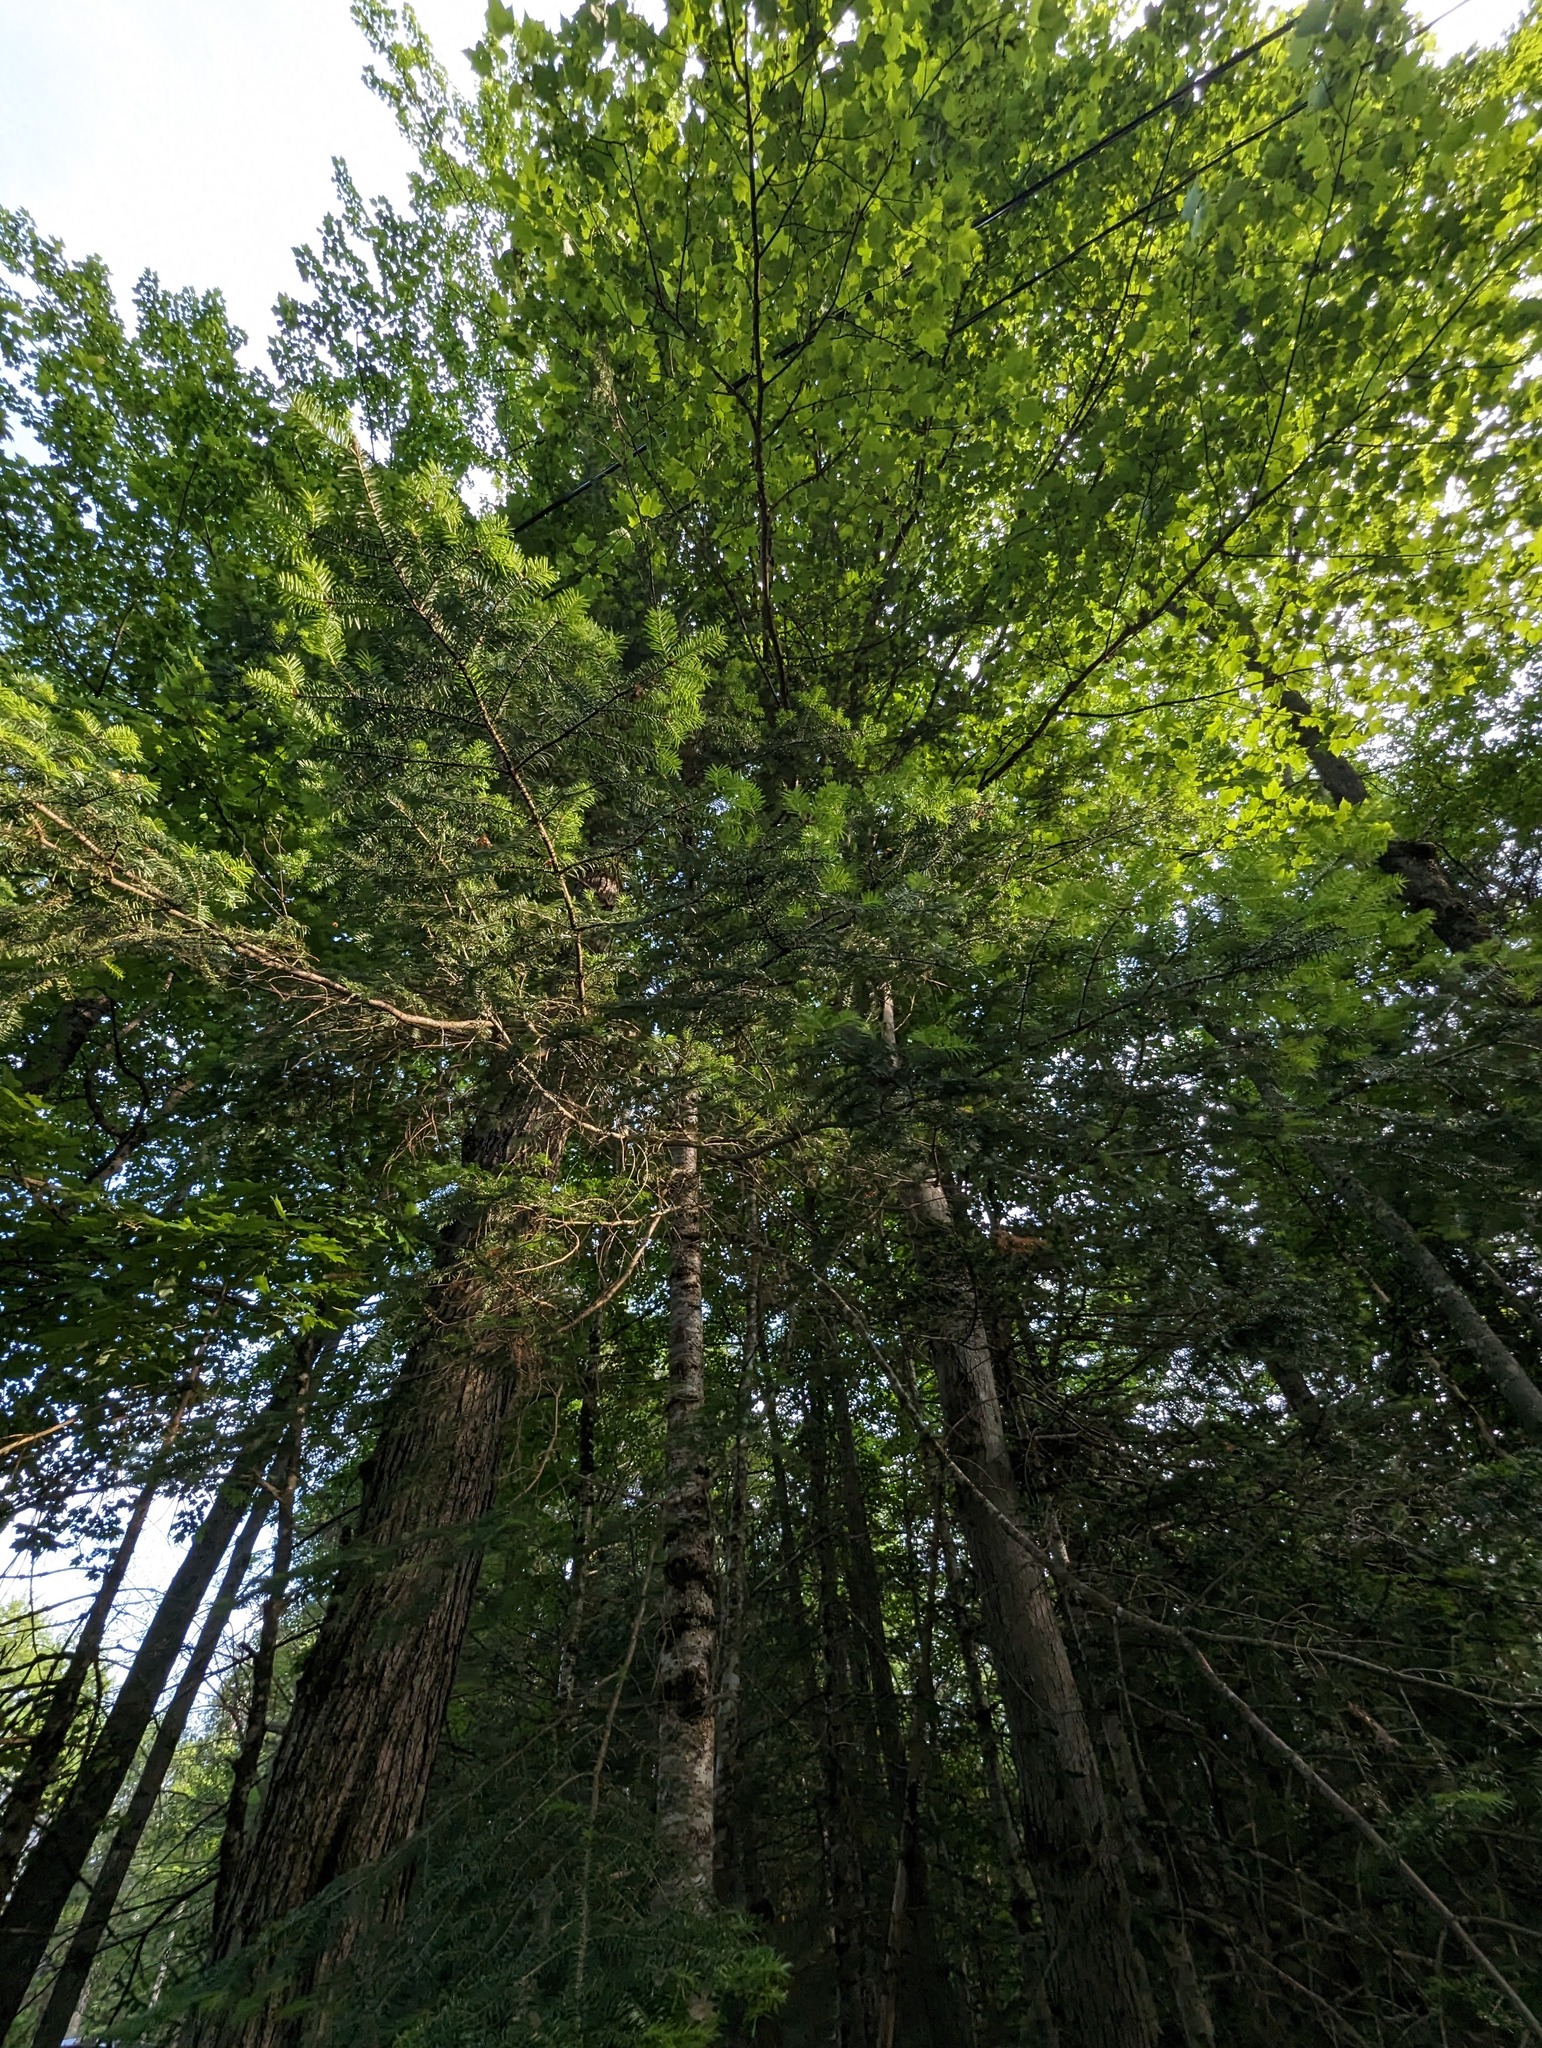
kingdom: Plantae
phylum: Tracheophyta
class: Pinopsida
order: Pinales
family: Pinaceae
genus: Abies
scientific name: Abies balsamea
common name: Balsam fir
